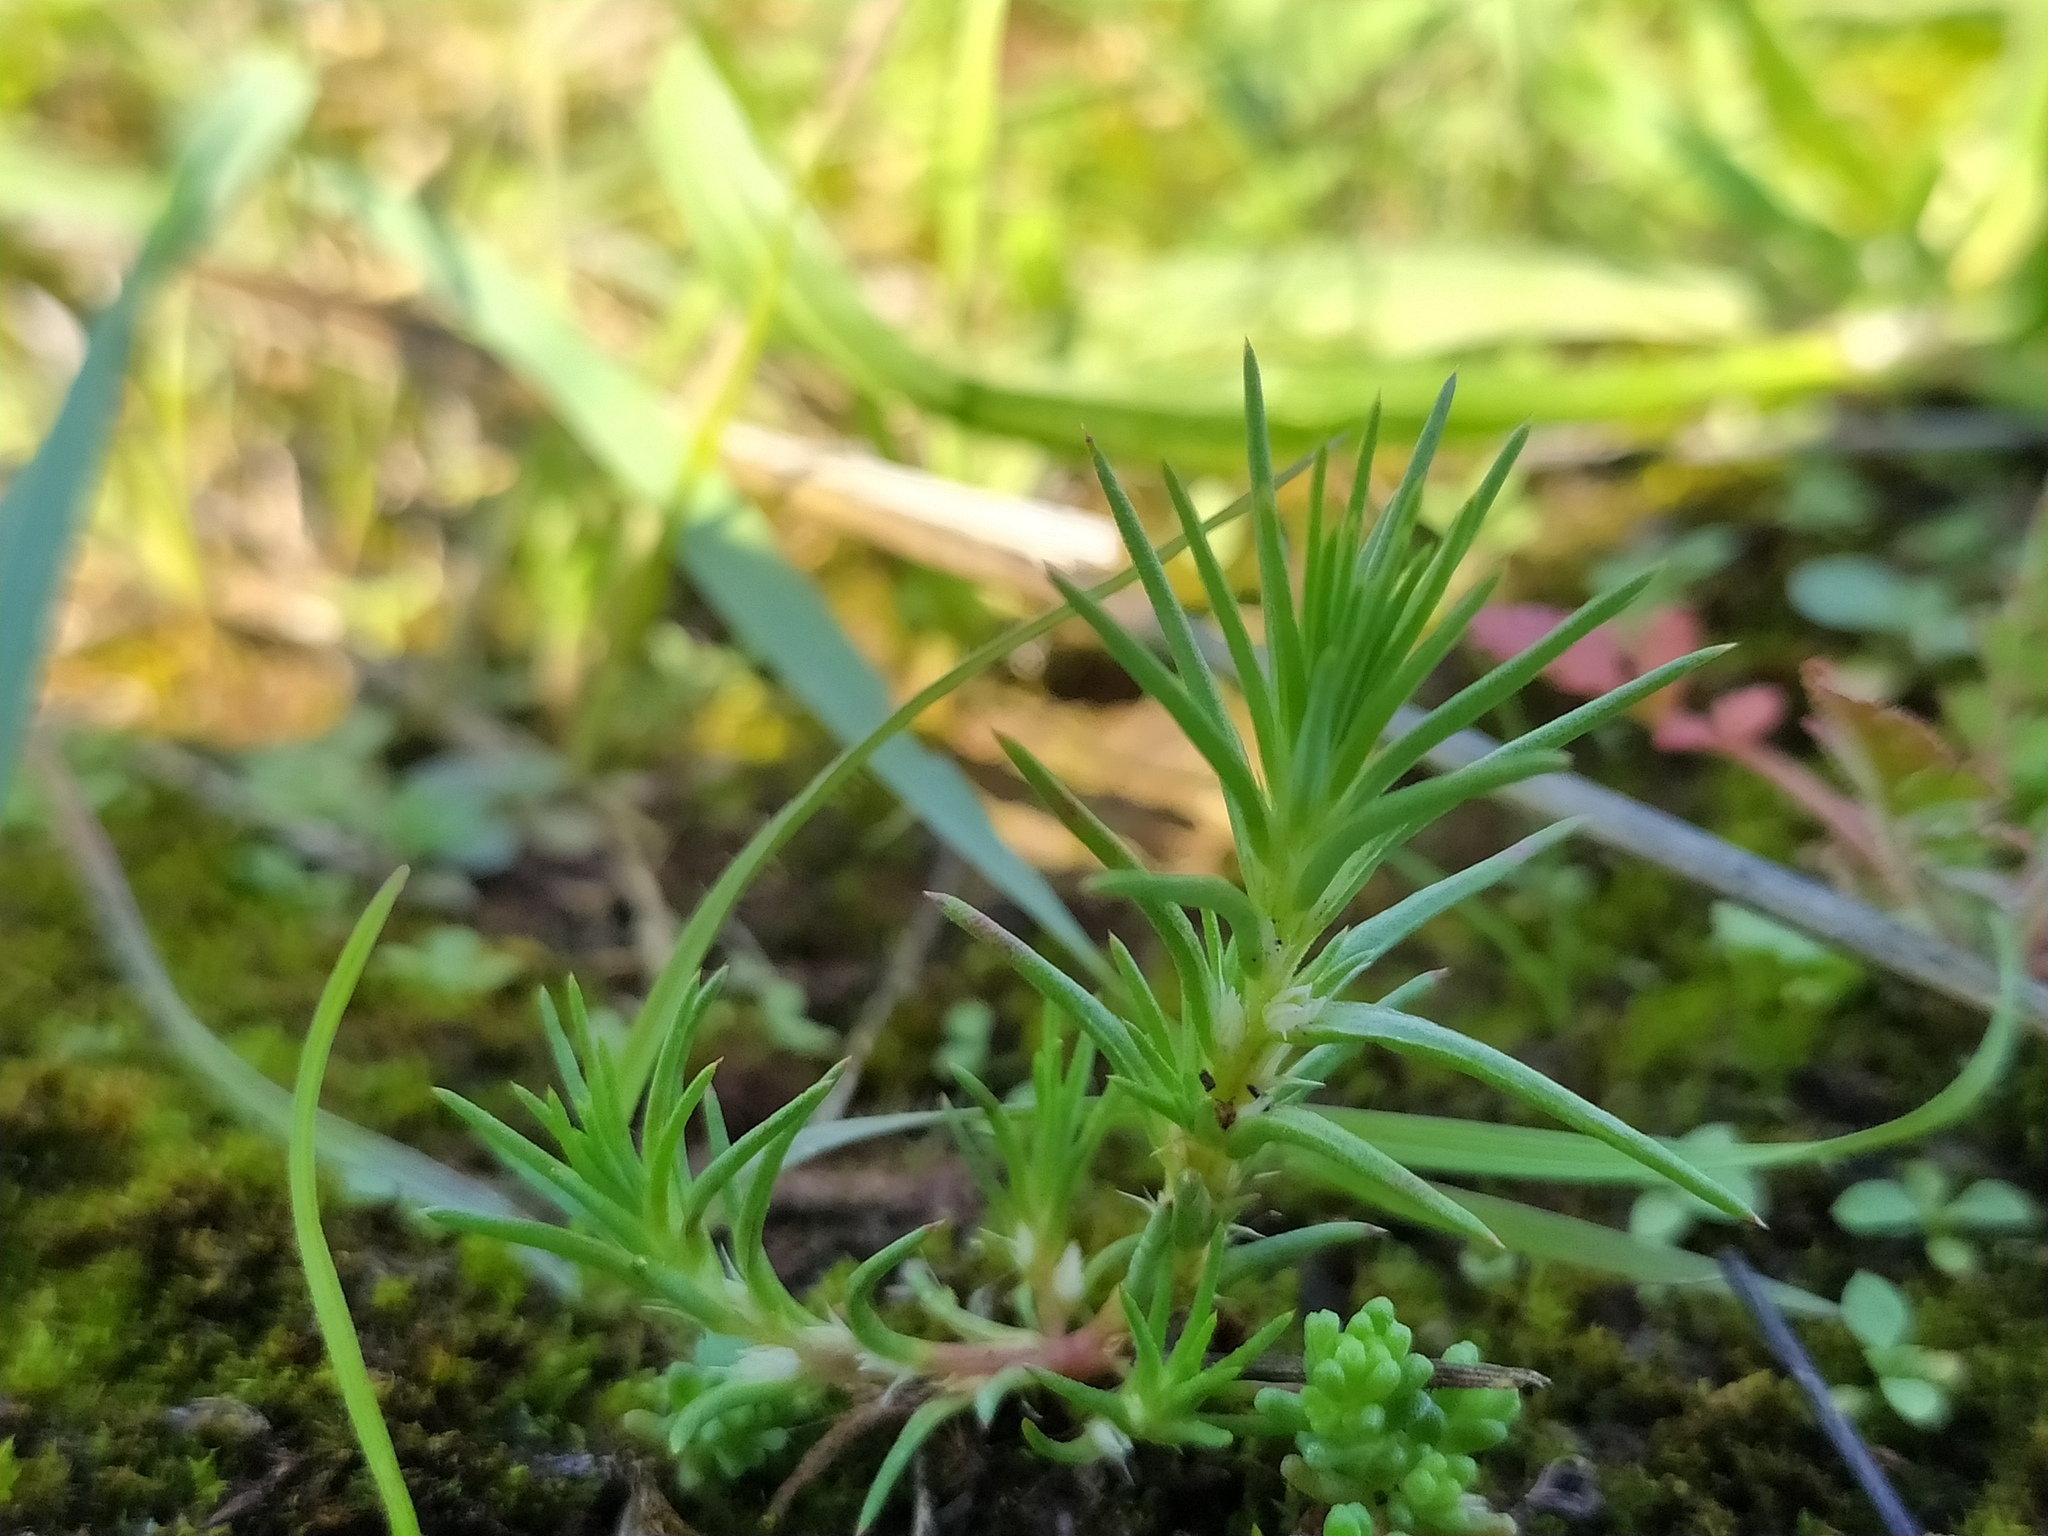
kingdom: Plantae
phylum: Tracheophyta
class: Magnoliopsida
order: Caryophyllales
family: Amaranthaceae
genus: Polycnemum
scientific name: Polycnemum majus
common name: Giant needleleaf
